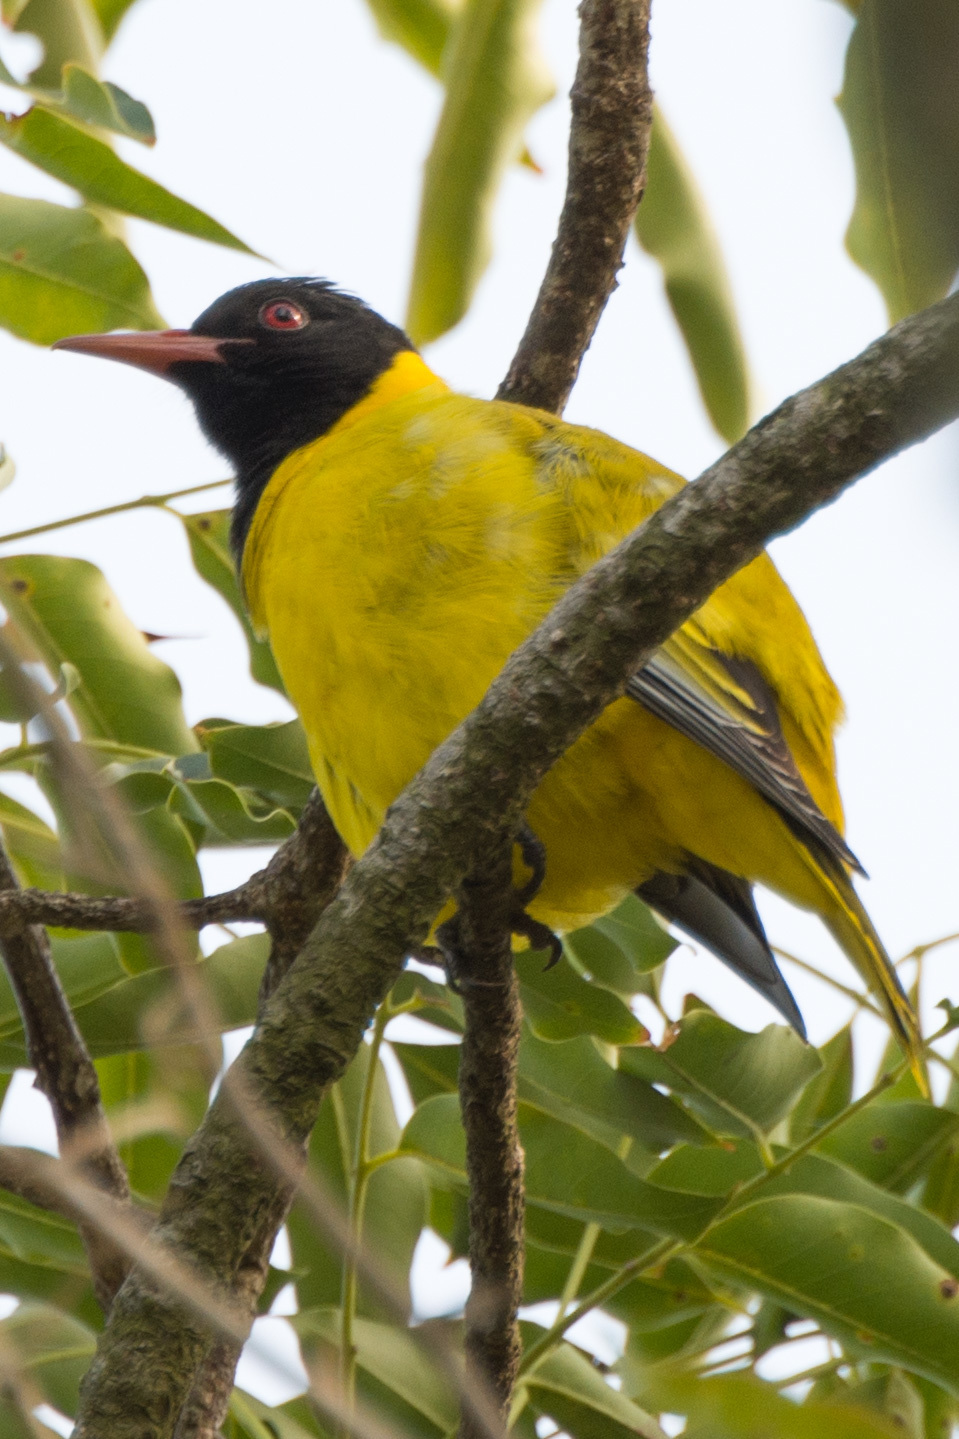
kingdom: Animalia
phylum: Chordata
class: Aves
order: Passeriformes
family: Oriolidae
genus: Oriolus
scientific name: Oriolus larvatus
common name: Black-headed oriole
